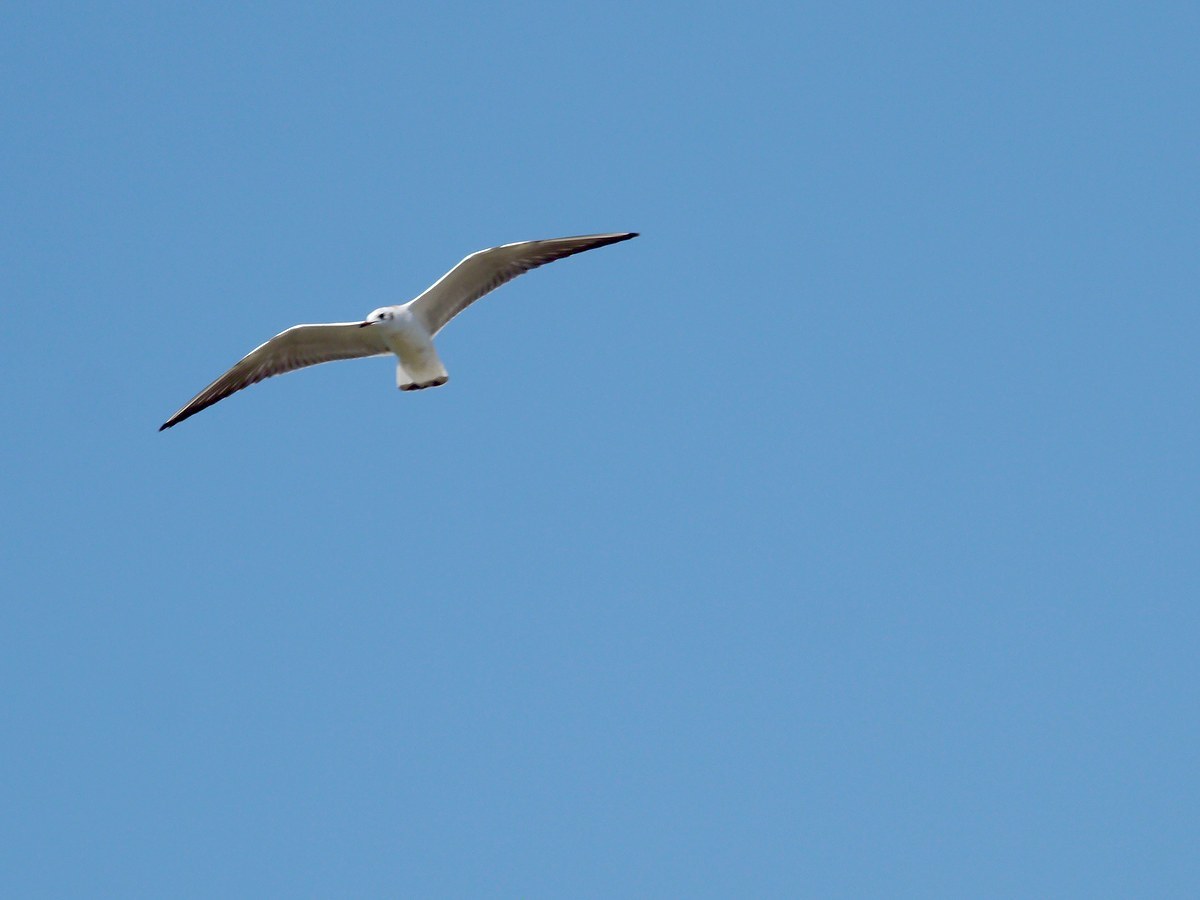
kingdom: Animalia
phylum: Chordata
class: Aves
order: Charadriiformes
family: Laridae
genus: Chroicocephalus
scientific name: Chroicocephalus ridibundus
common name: Black-headed gull
